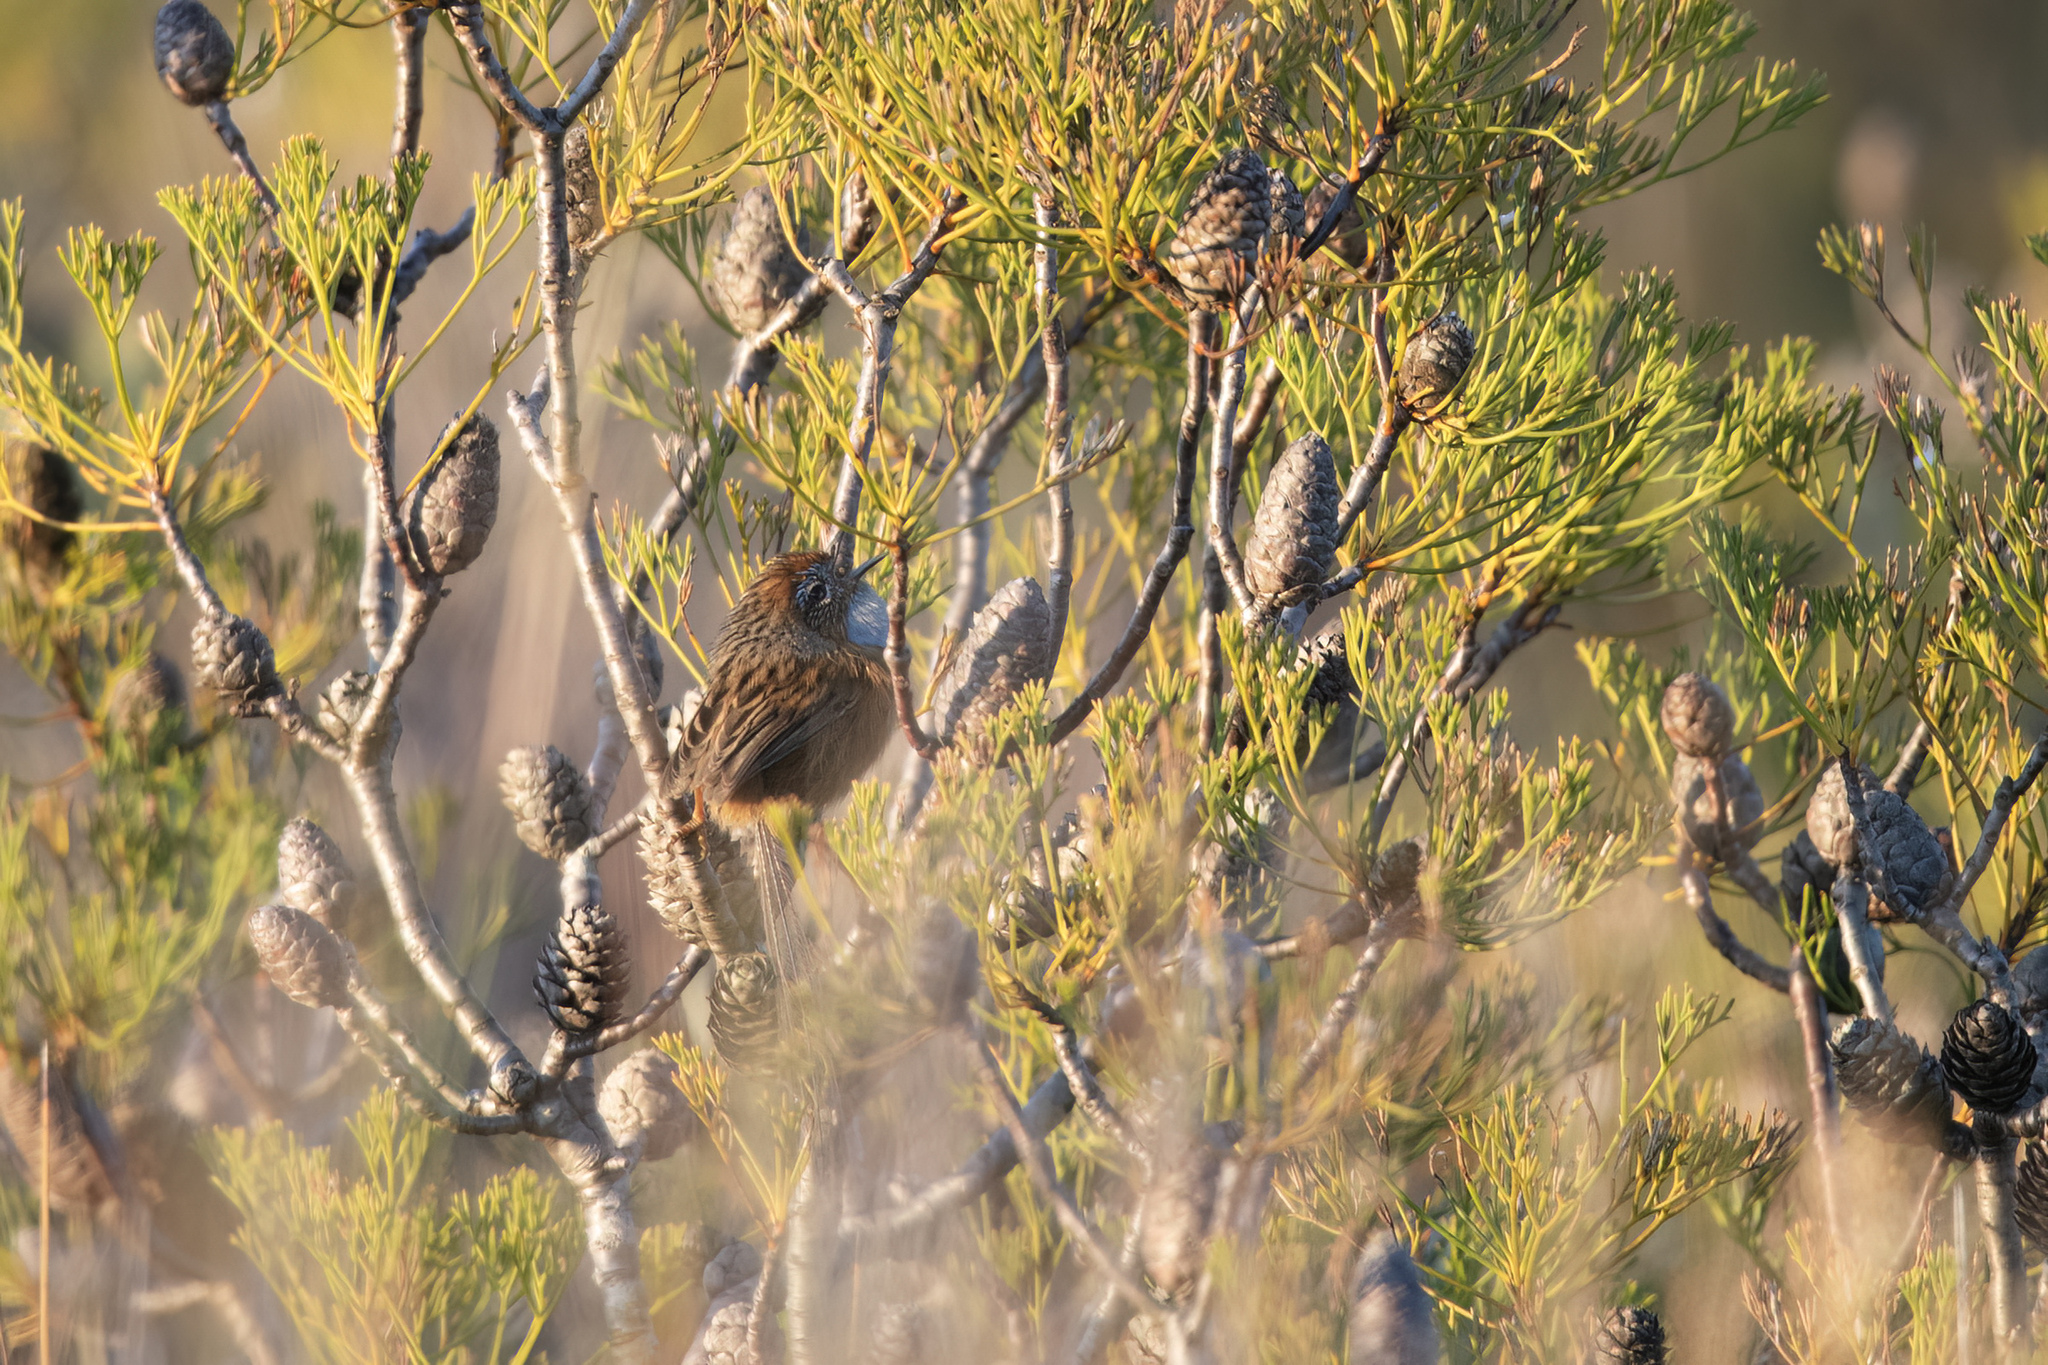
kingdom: Animalia
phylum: Chordata
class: Aves
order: Passeriformes
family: Maluridae
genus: Stipiturus
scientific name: Stipiturus malachurus
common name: Southern emu-wren
